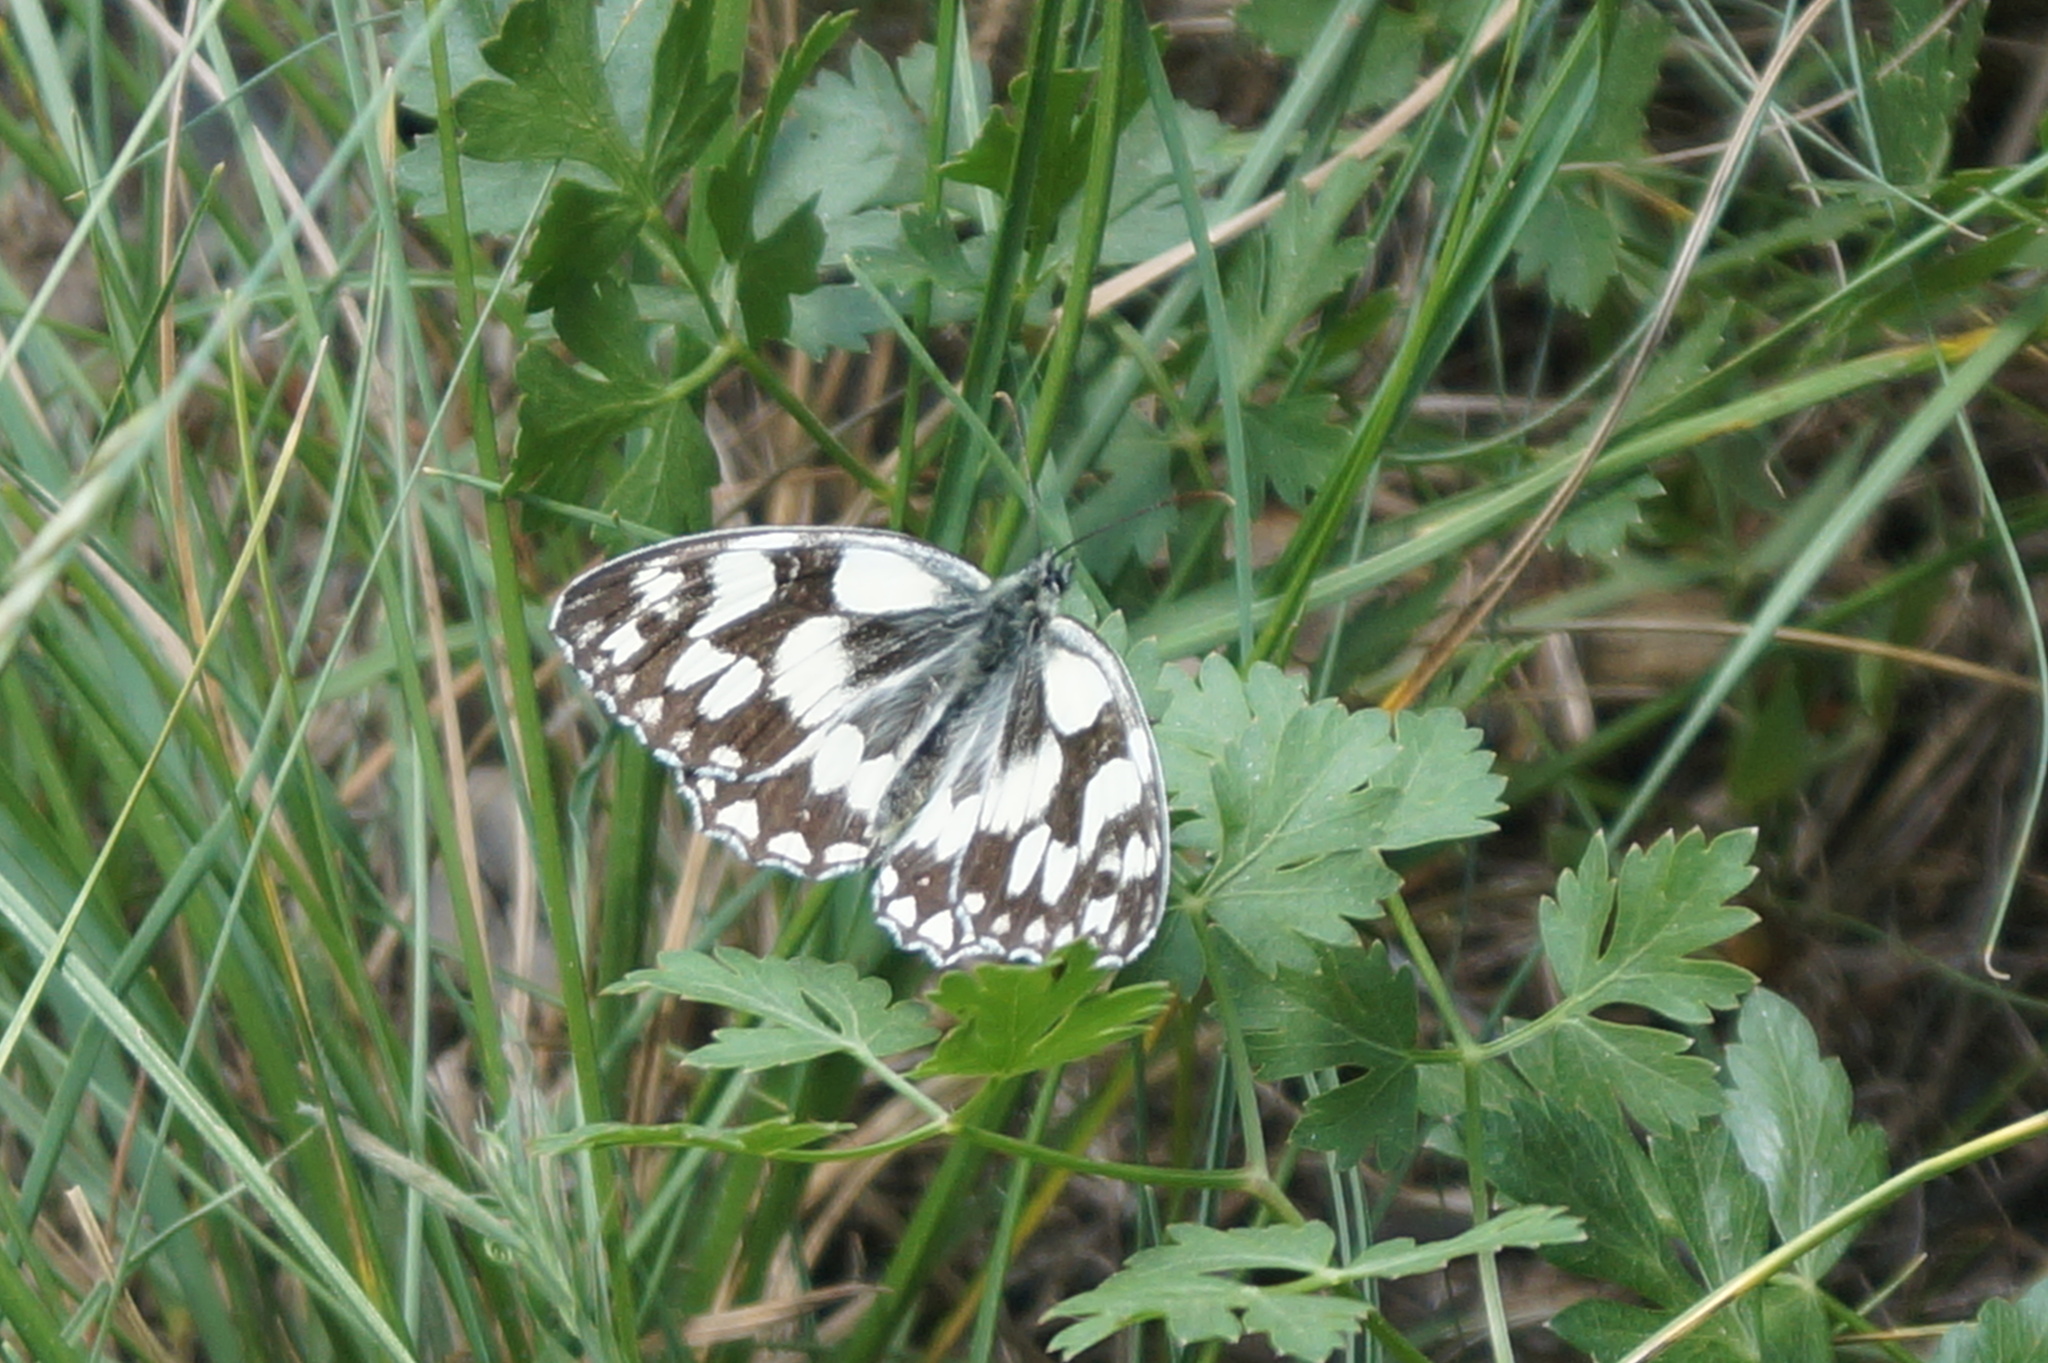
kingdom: Animalia
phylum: Arthropoda
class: Insecta
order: Lepidoptera
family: Nymphalidae
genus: Melanargia
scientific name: Melanargia galathea
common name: Marbled white
